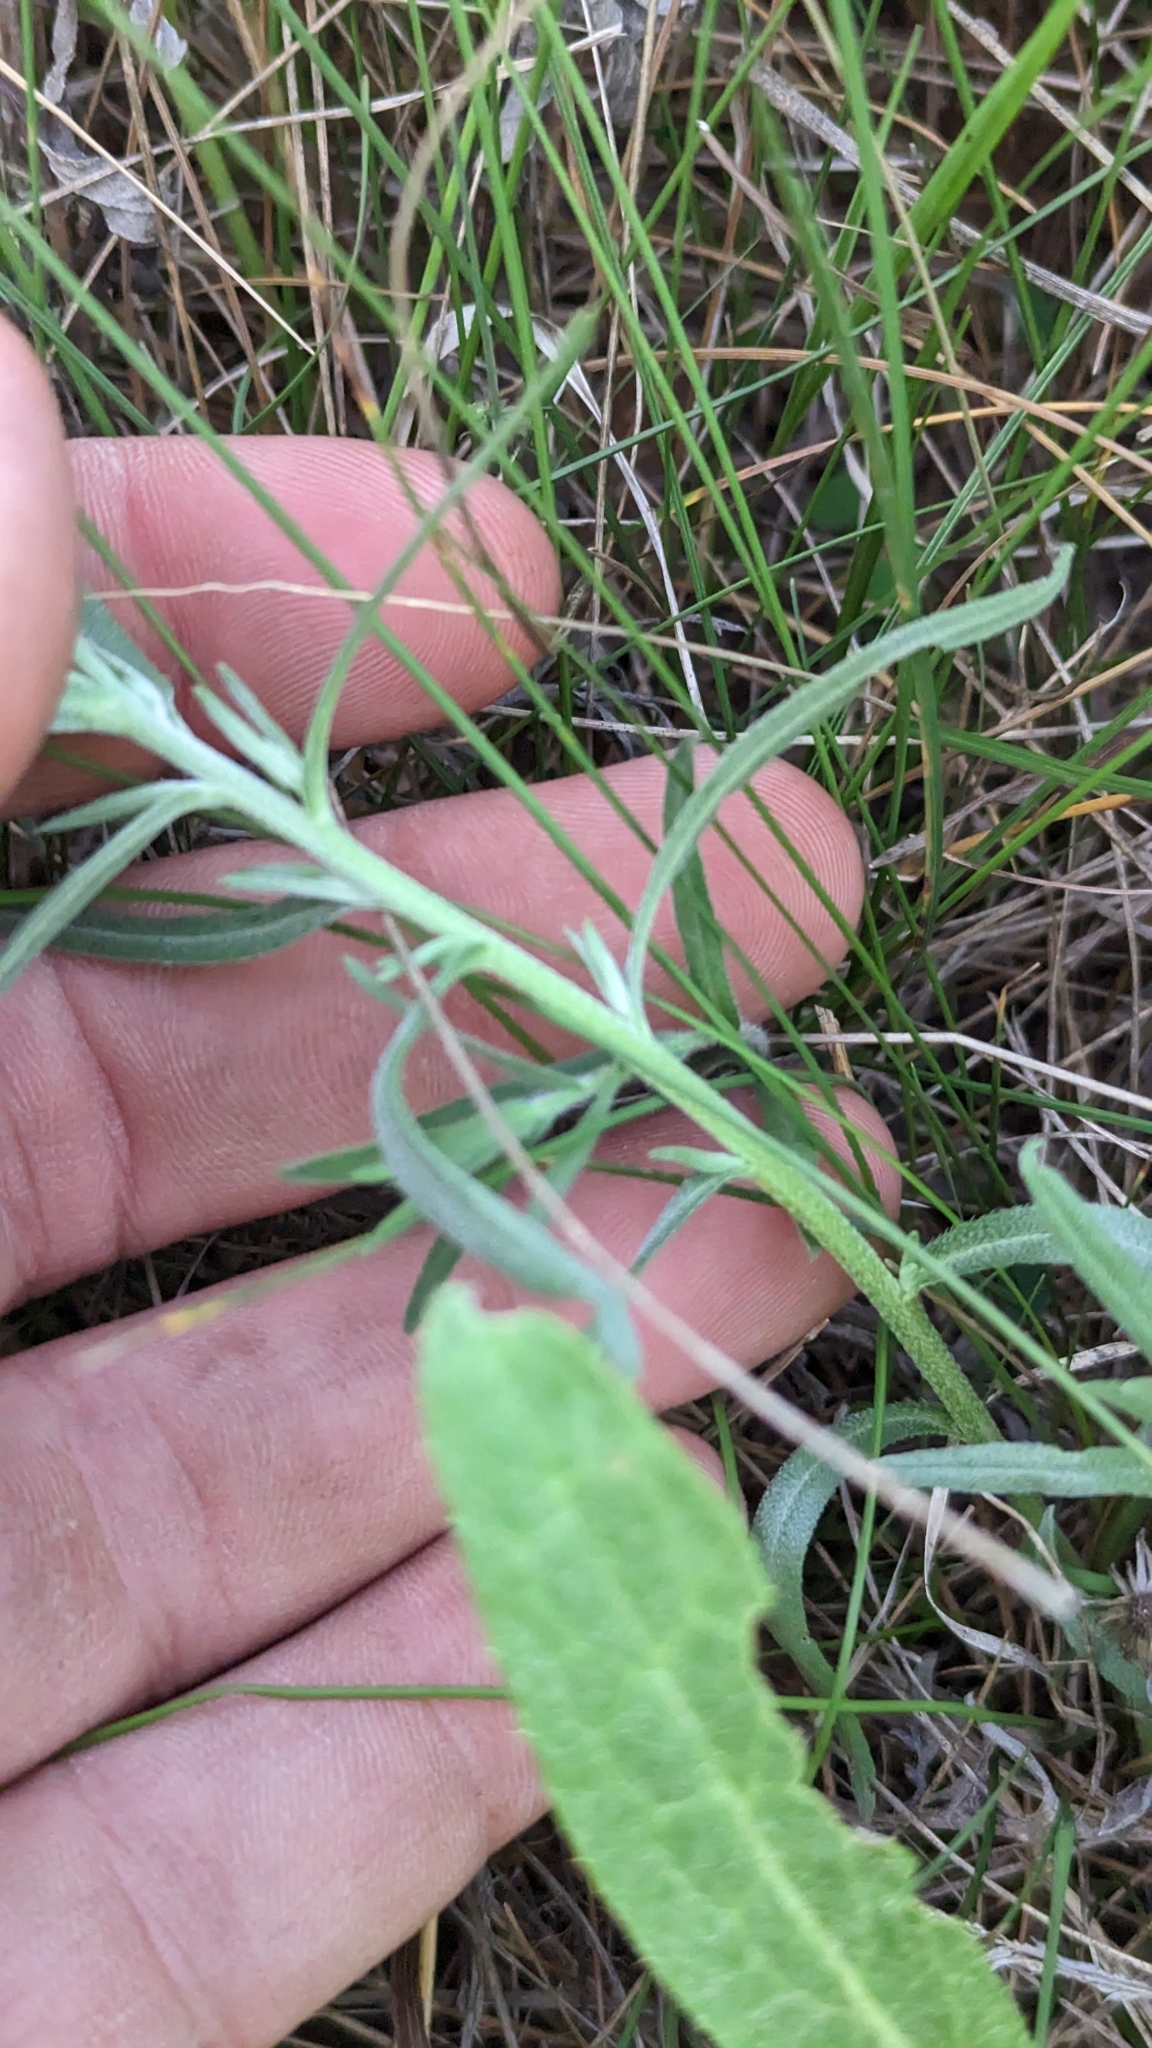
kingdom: Plantae
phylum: Tracheophyta
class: Magnoliopsida
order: Boraginales
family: Boraginaceae
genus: Lithospermum
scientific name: Lithospermum incisum
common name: Fringed gromwell
